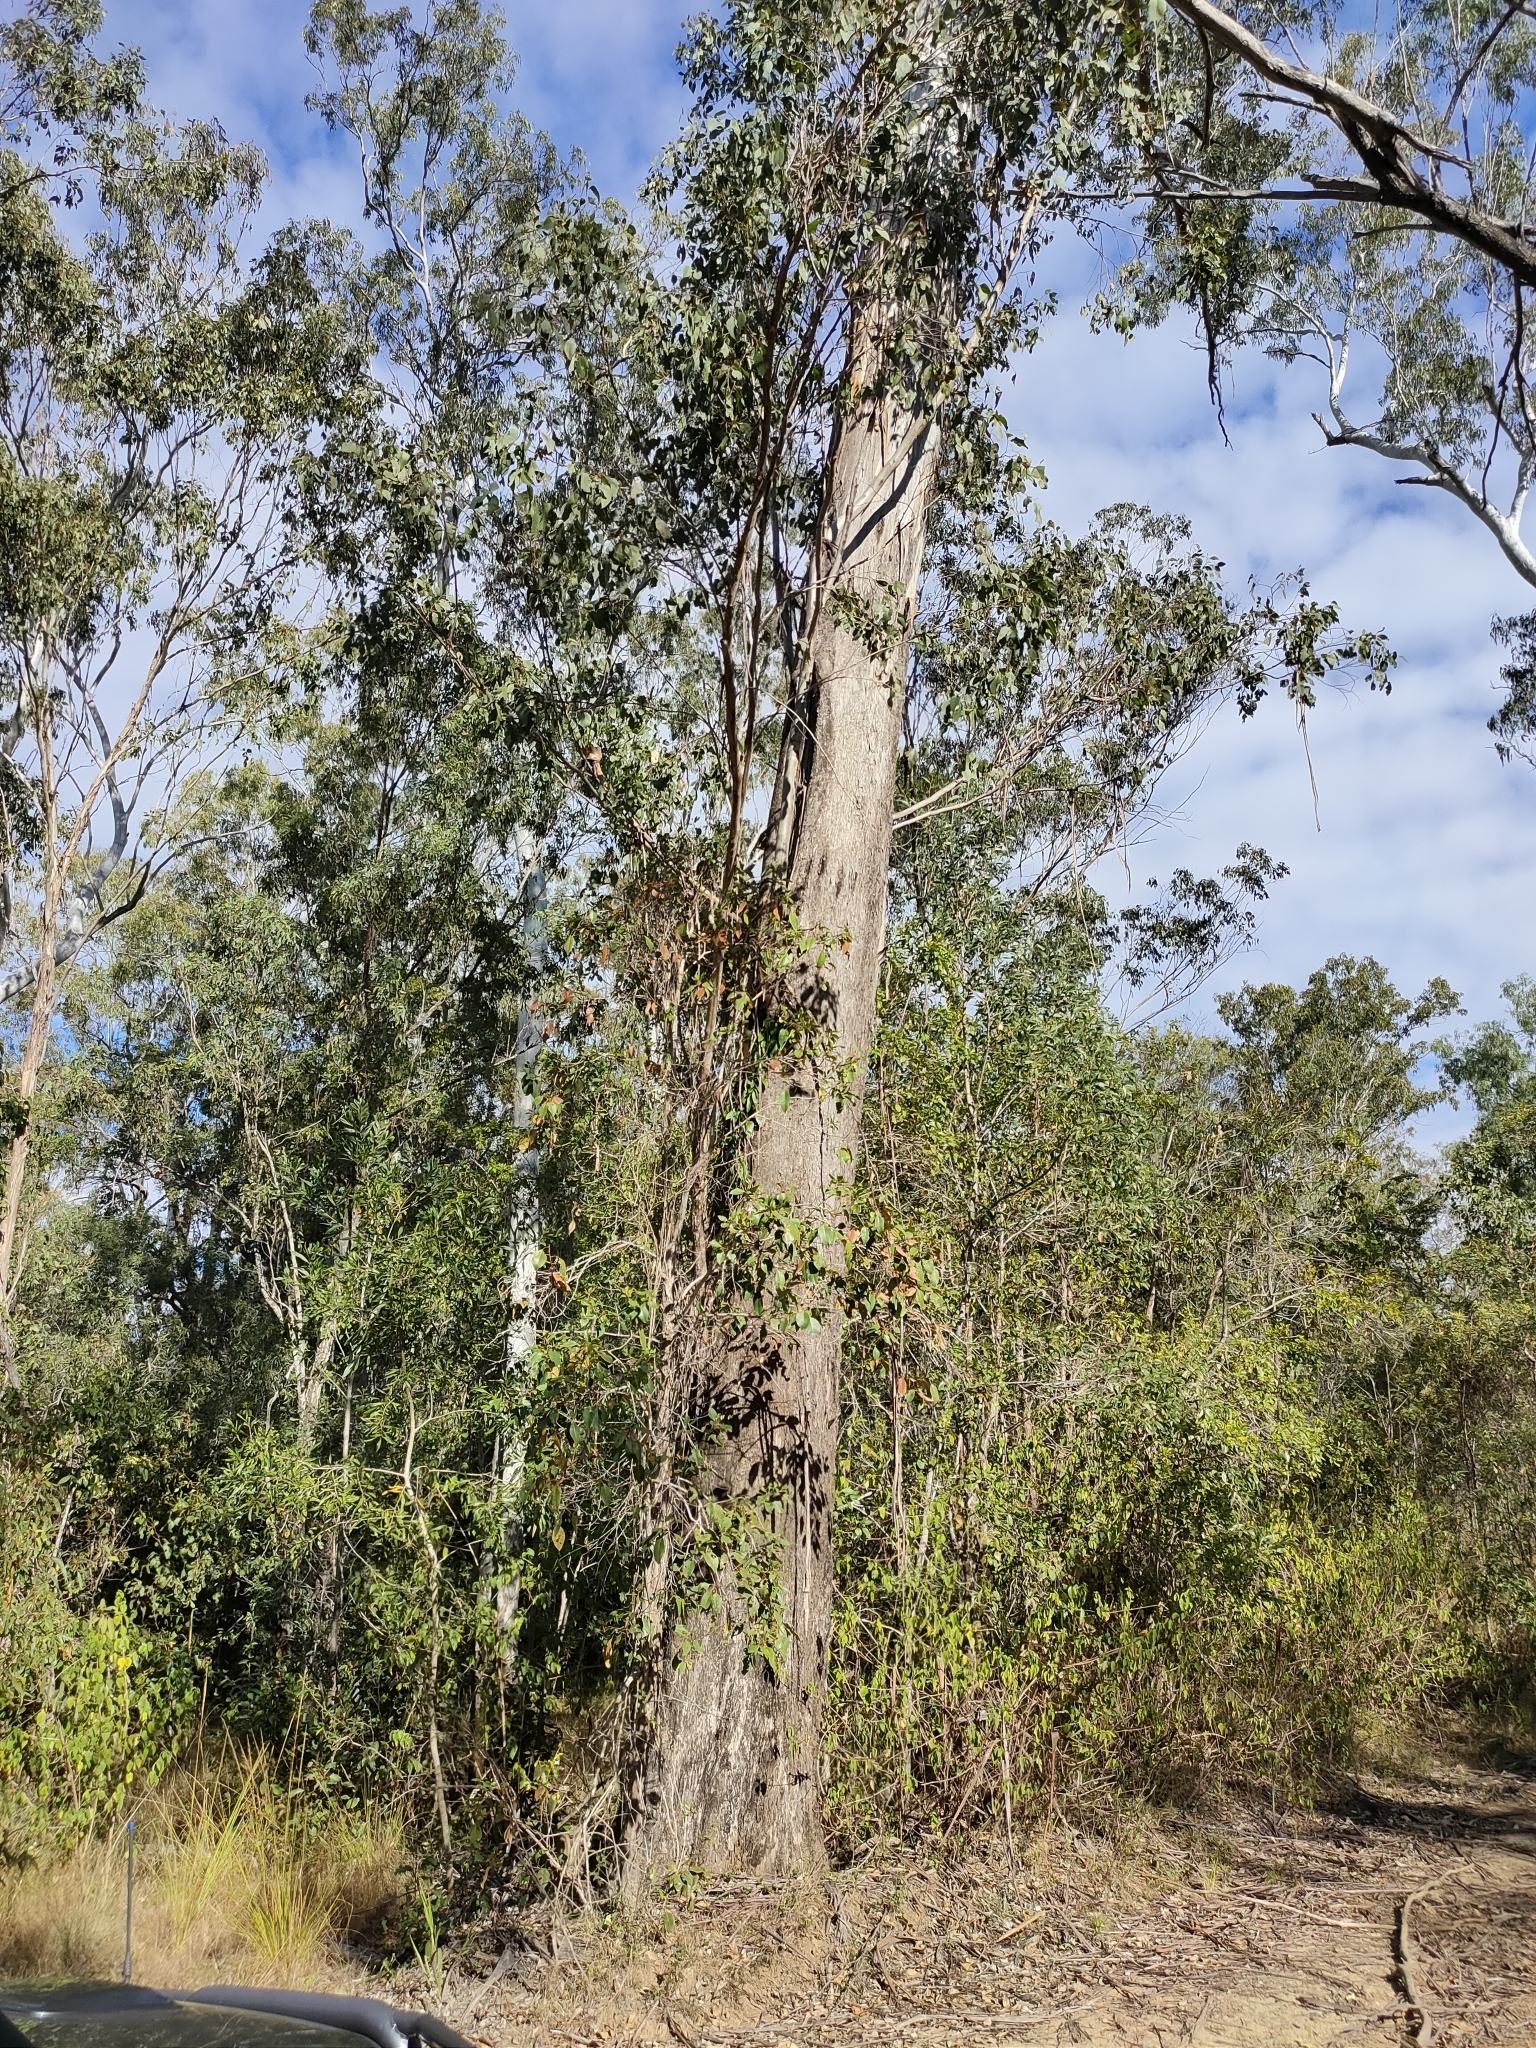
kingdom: Plantae
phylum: Tracheophyta
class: Magnoliopsida
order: Myrtales
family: Myrtaceae
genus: Eucalyptus
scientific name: Eucalyptus moluccana
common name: Grey-box
